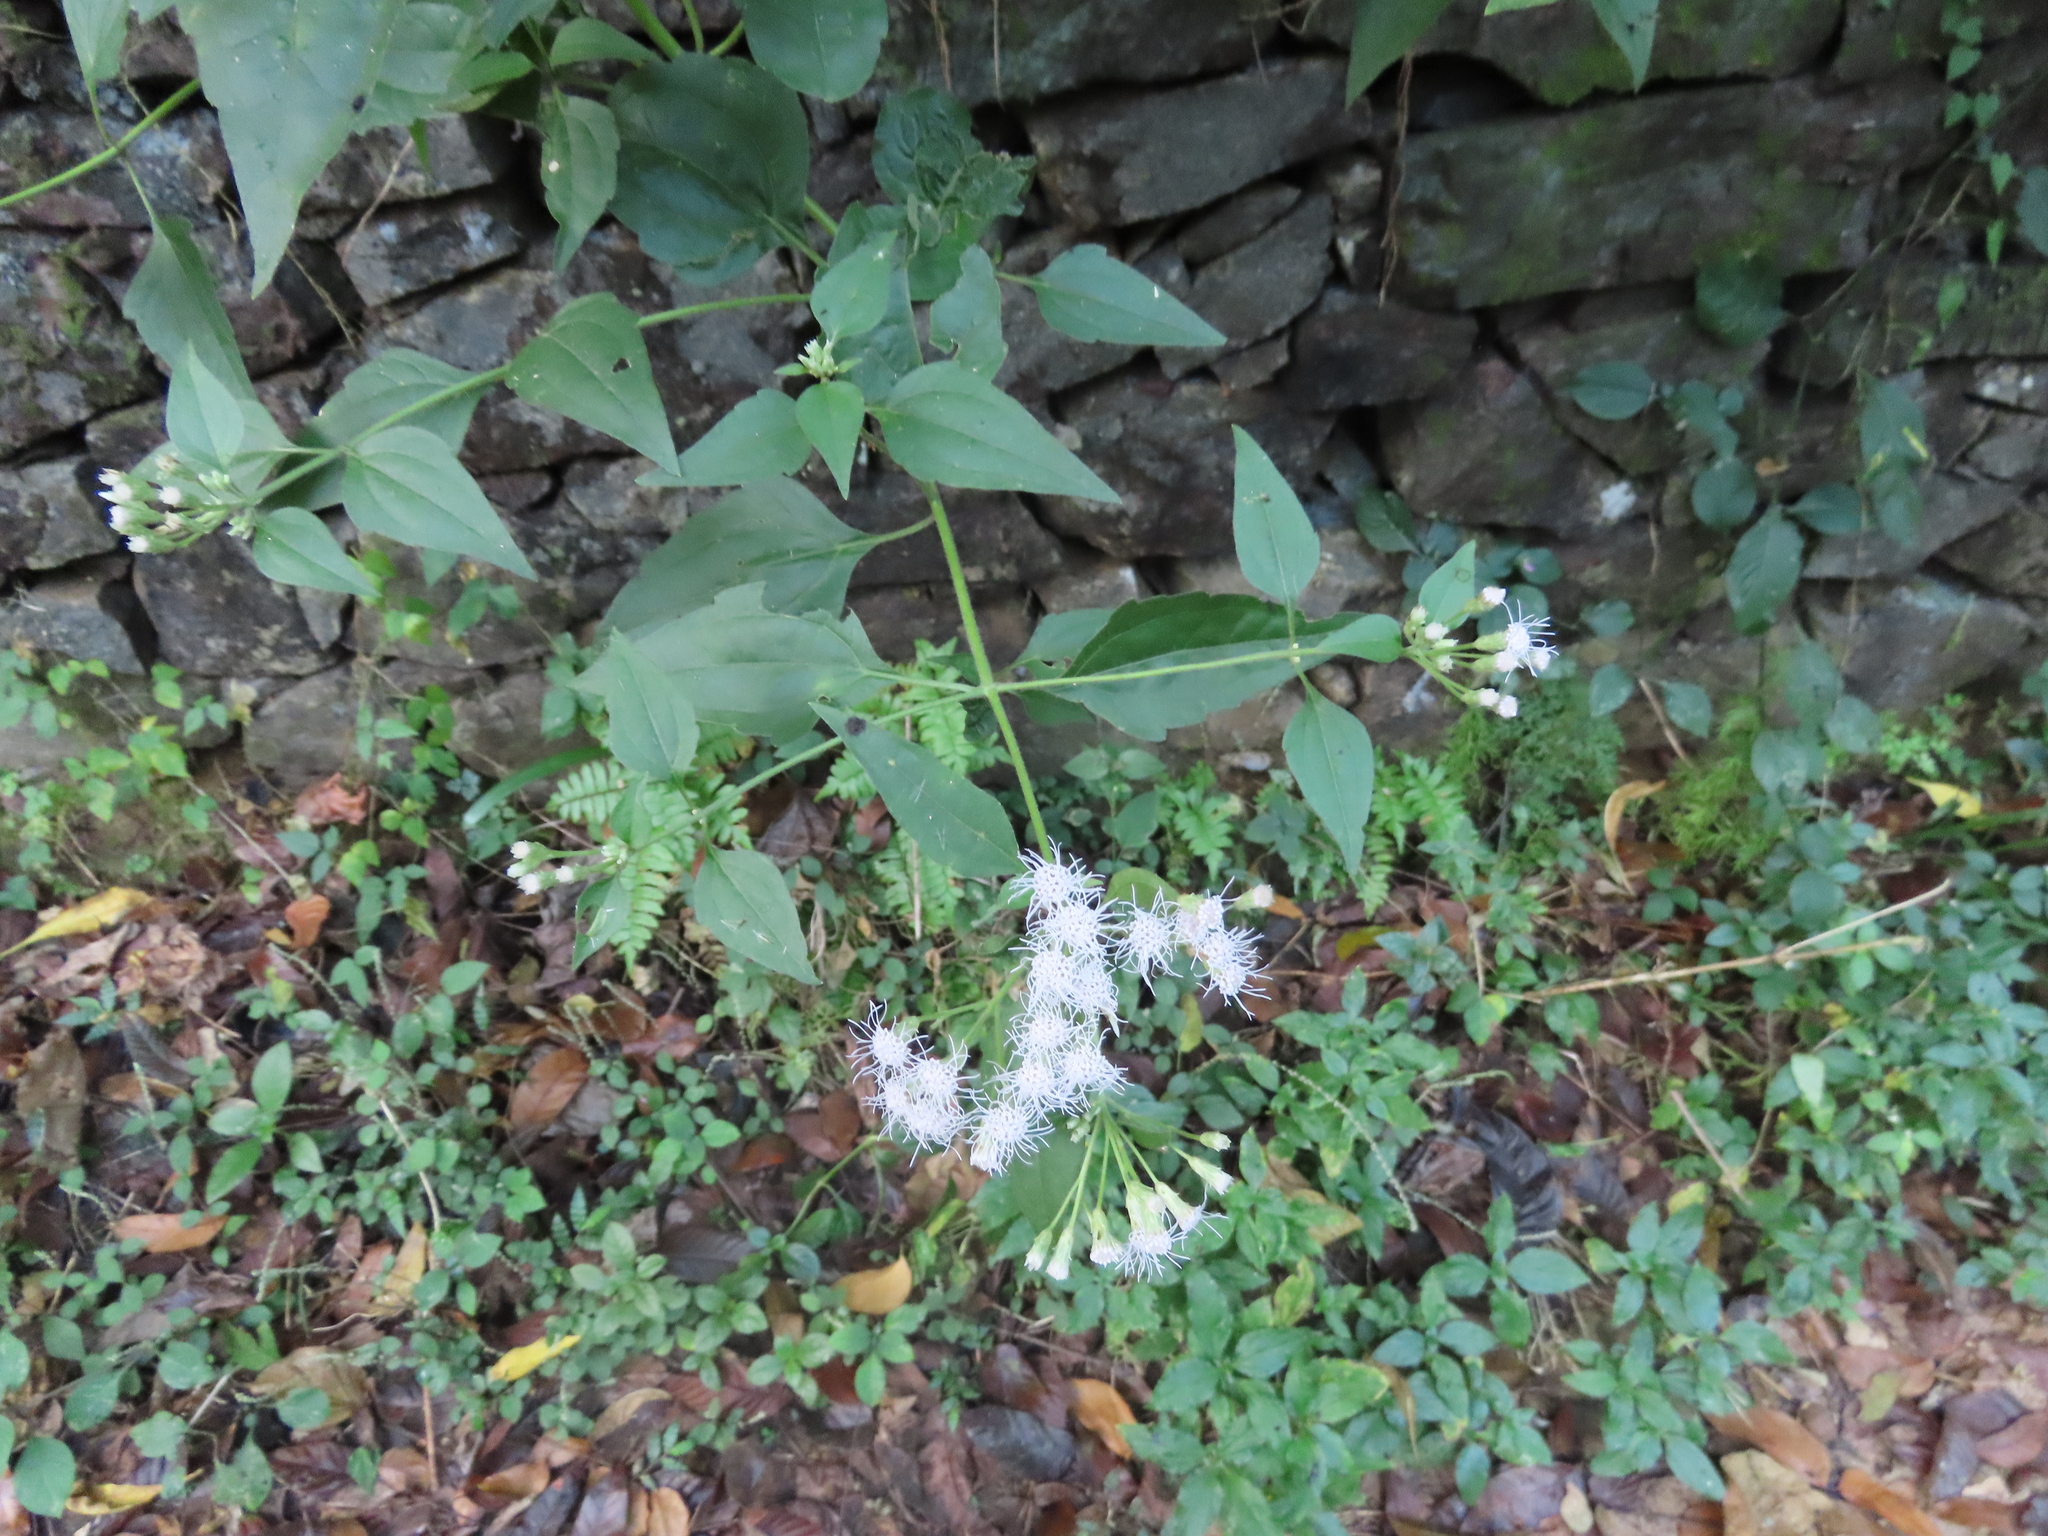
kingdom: Plantae
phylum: Tracheophyta
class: Magnoliopsida
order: Asterales
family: Asteraceae
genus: Chromolaena
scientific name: Chromolaena odorata
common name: Siamweed
